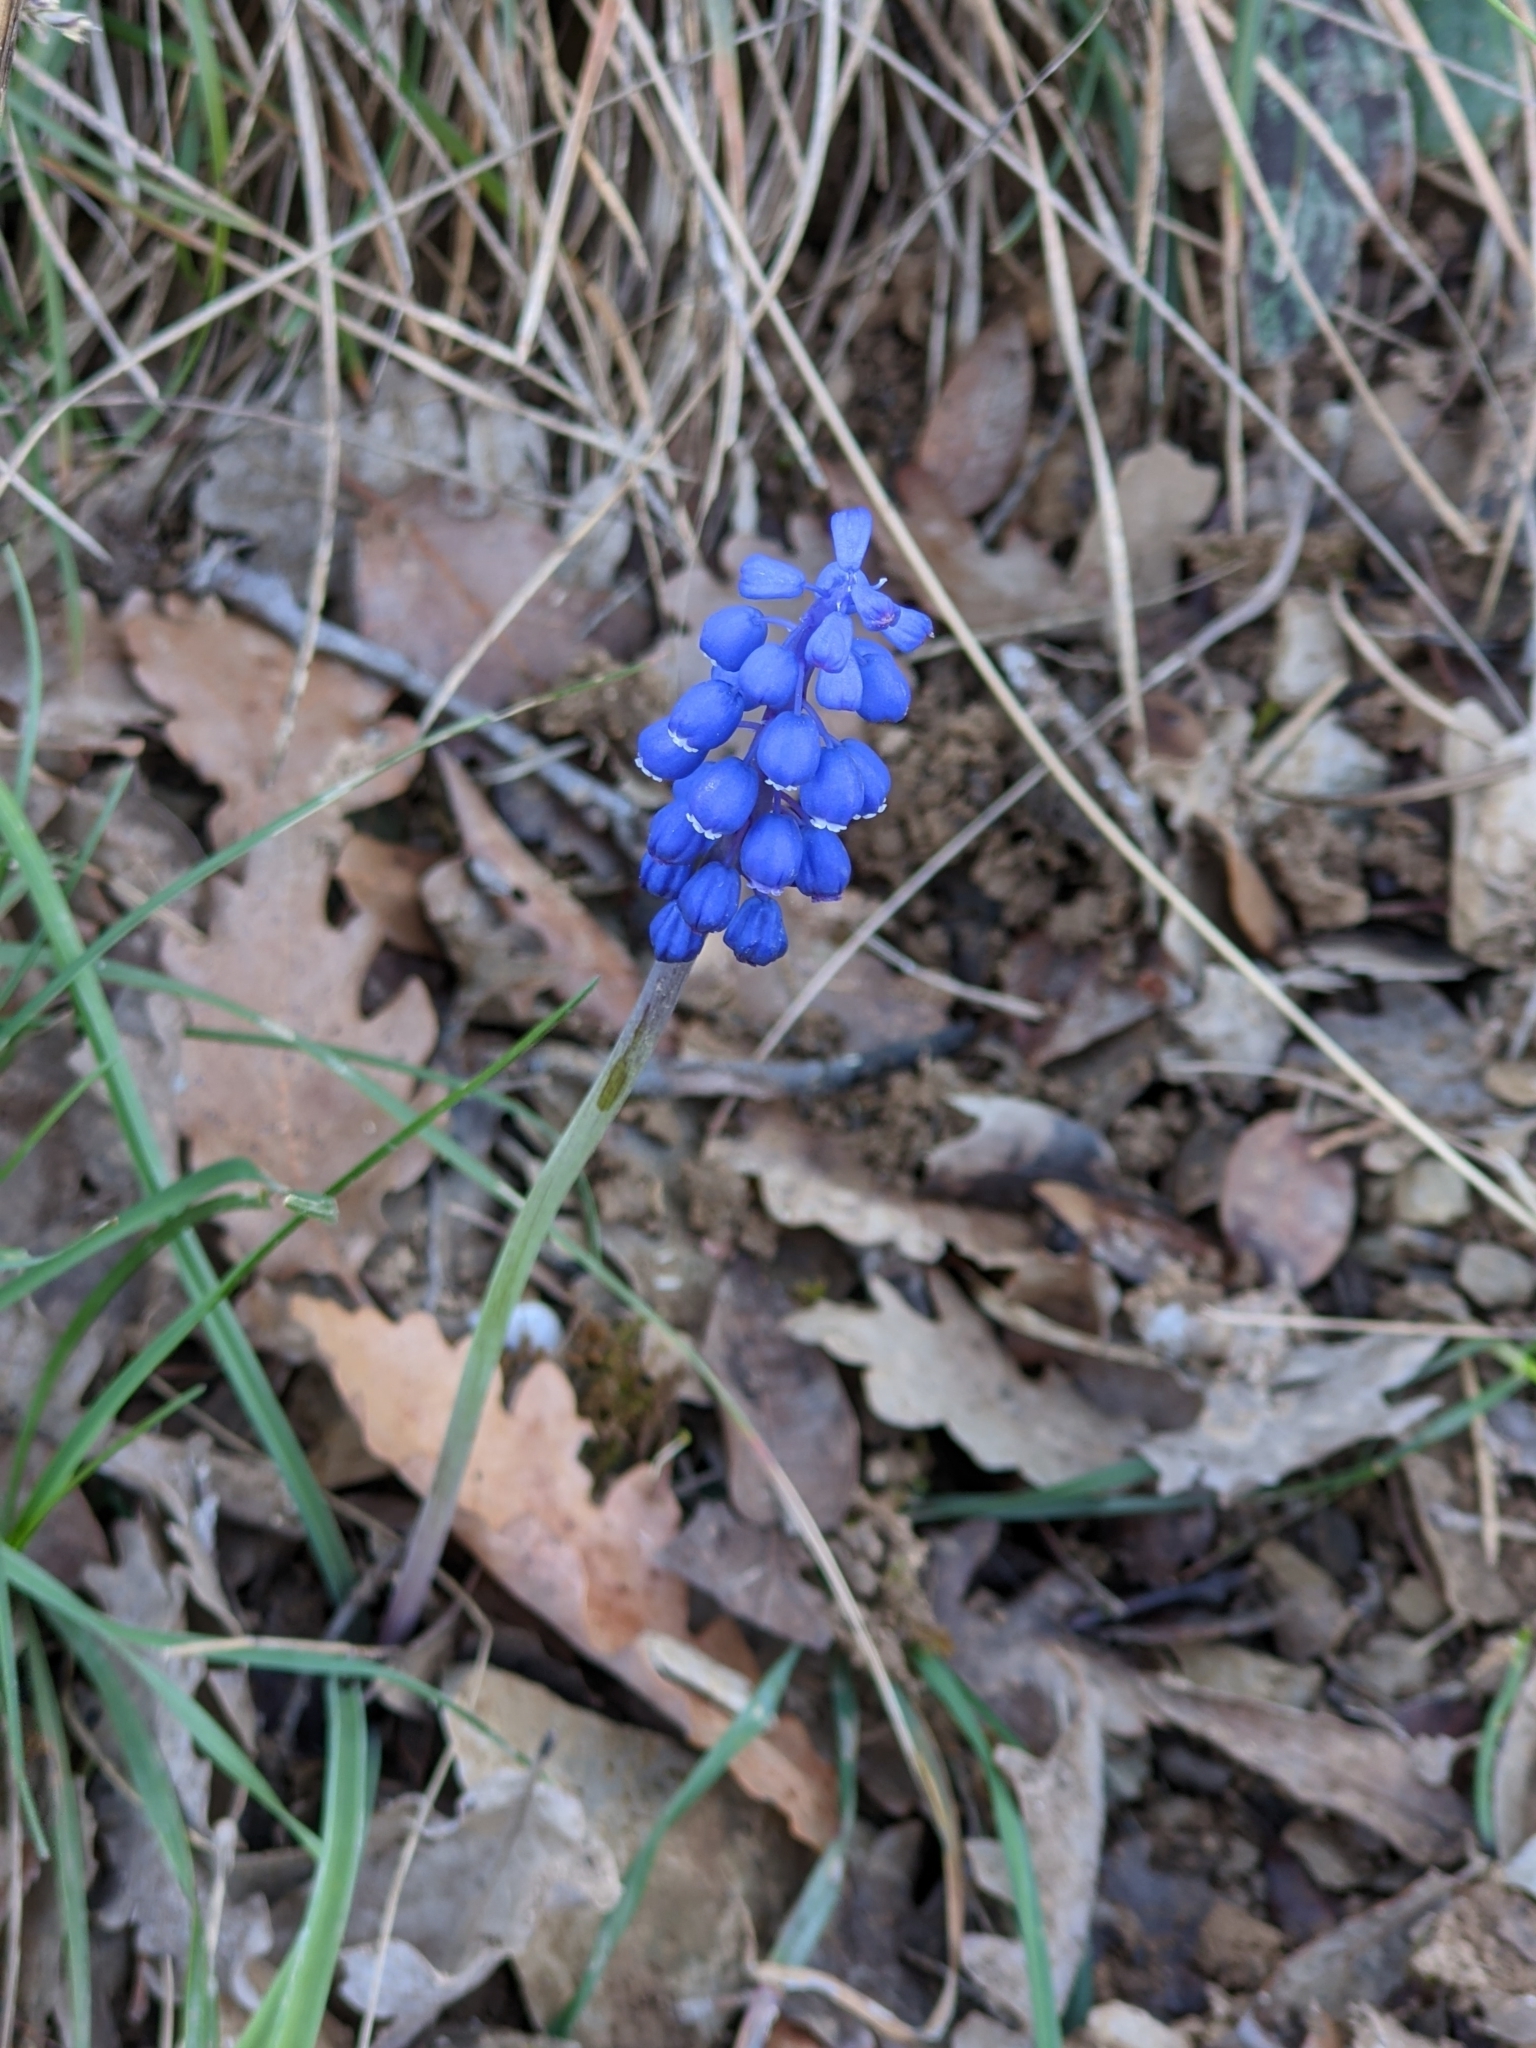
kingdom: Plantae
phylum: Tracheophyta
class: Liliopsida
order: Asparagales
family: Asparagaceae
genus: Muscari
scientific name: Muscari botryoides
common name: Compact grape-hyacinth
